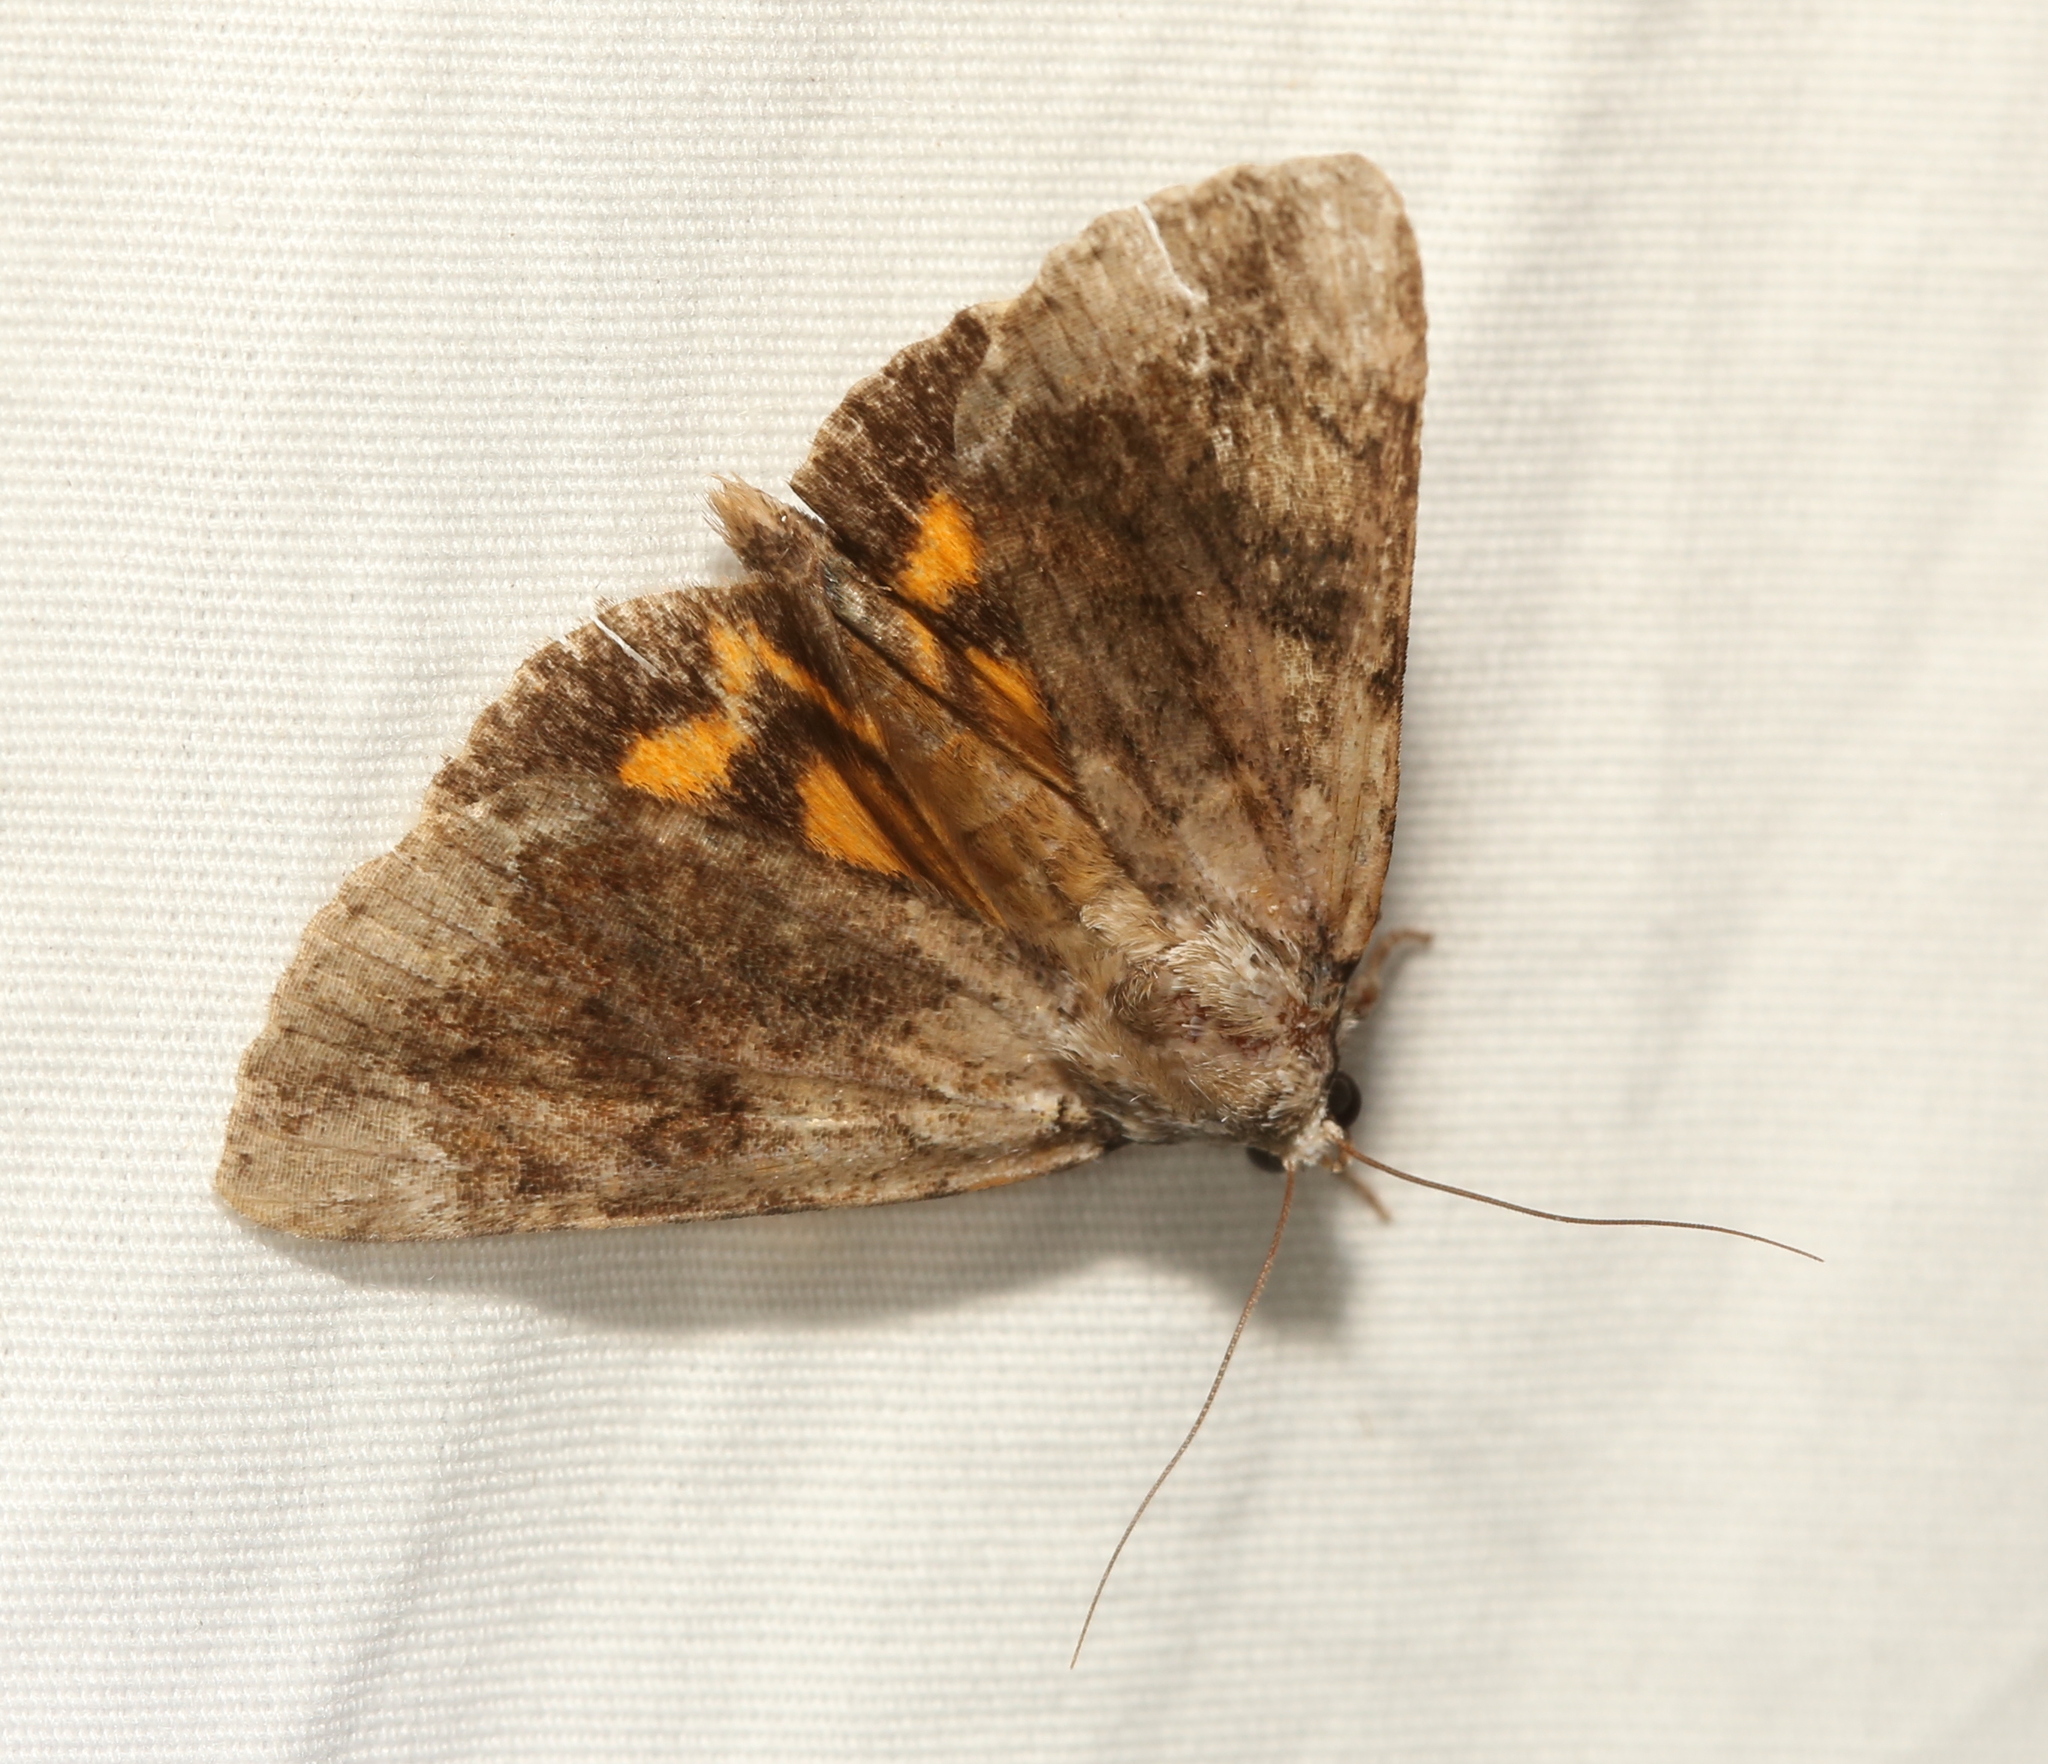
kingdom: Animalia
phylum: Arthropoda
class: Insecta
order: Lepidoptera
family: Erebidae
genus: Catocala
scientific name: Catocala micronympha
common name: Little nymph underwing
